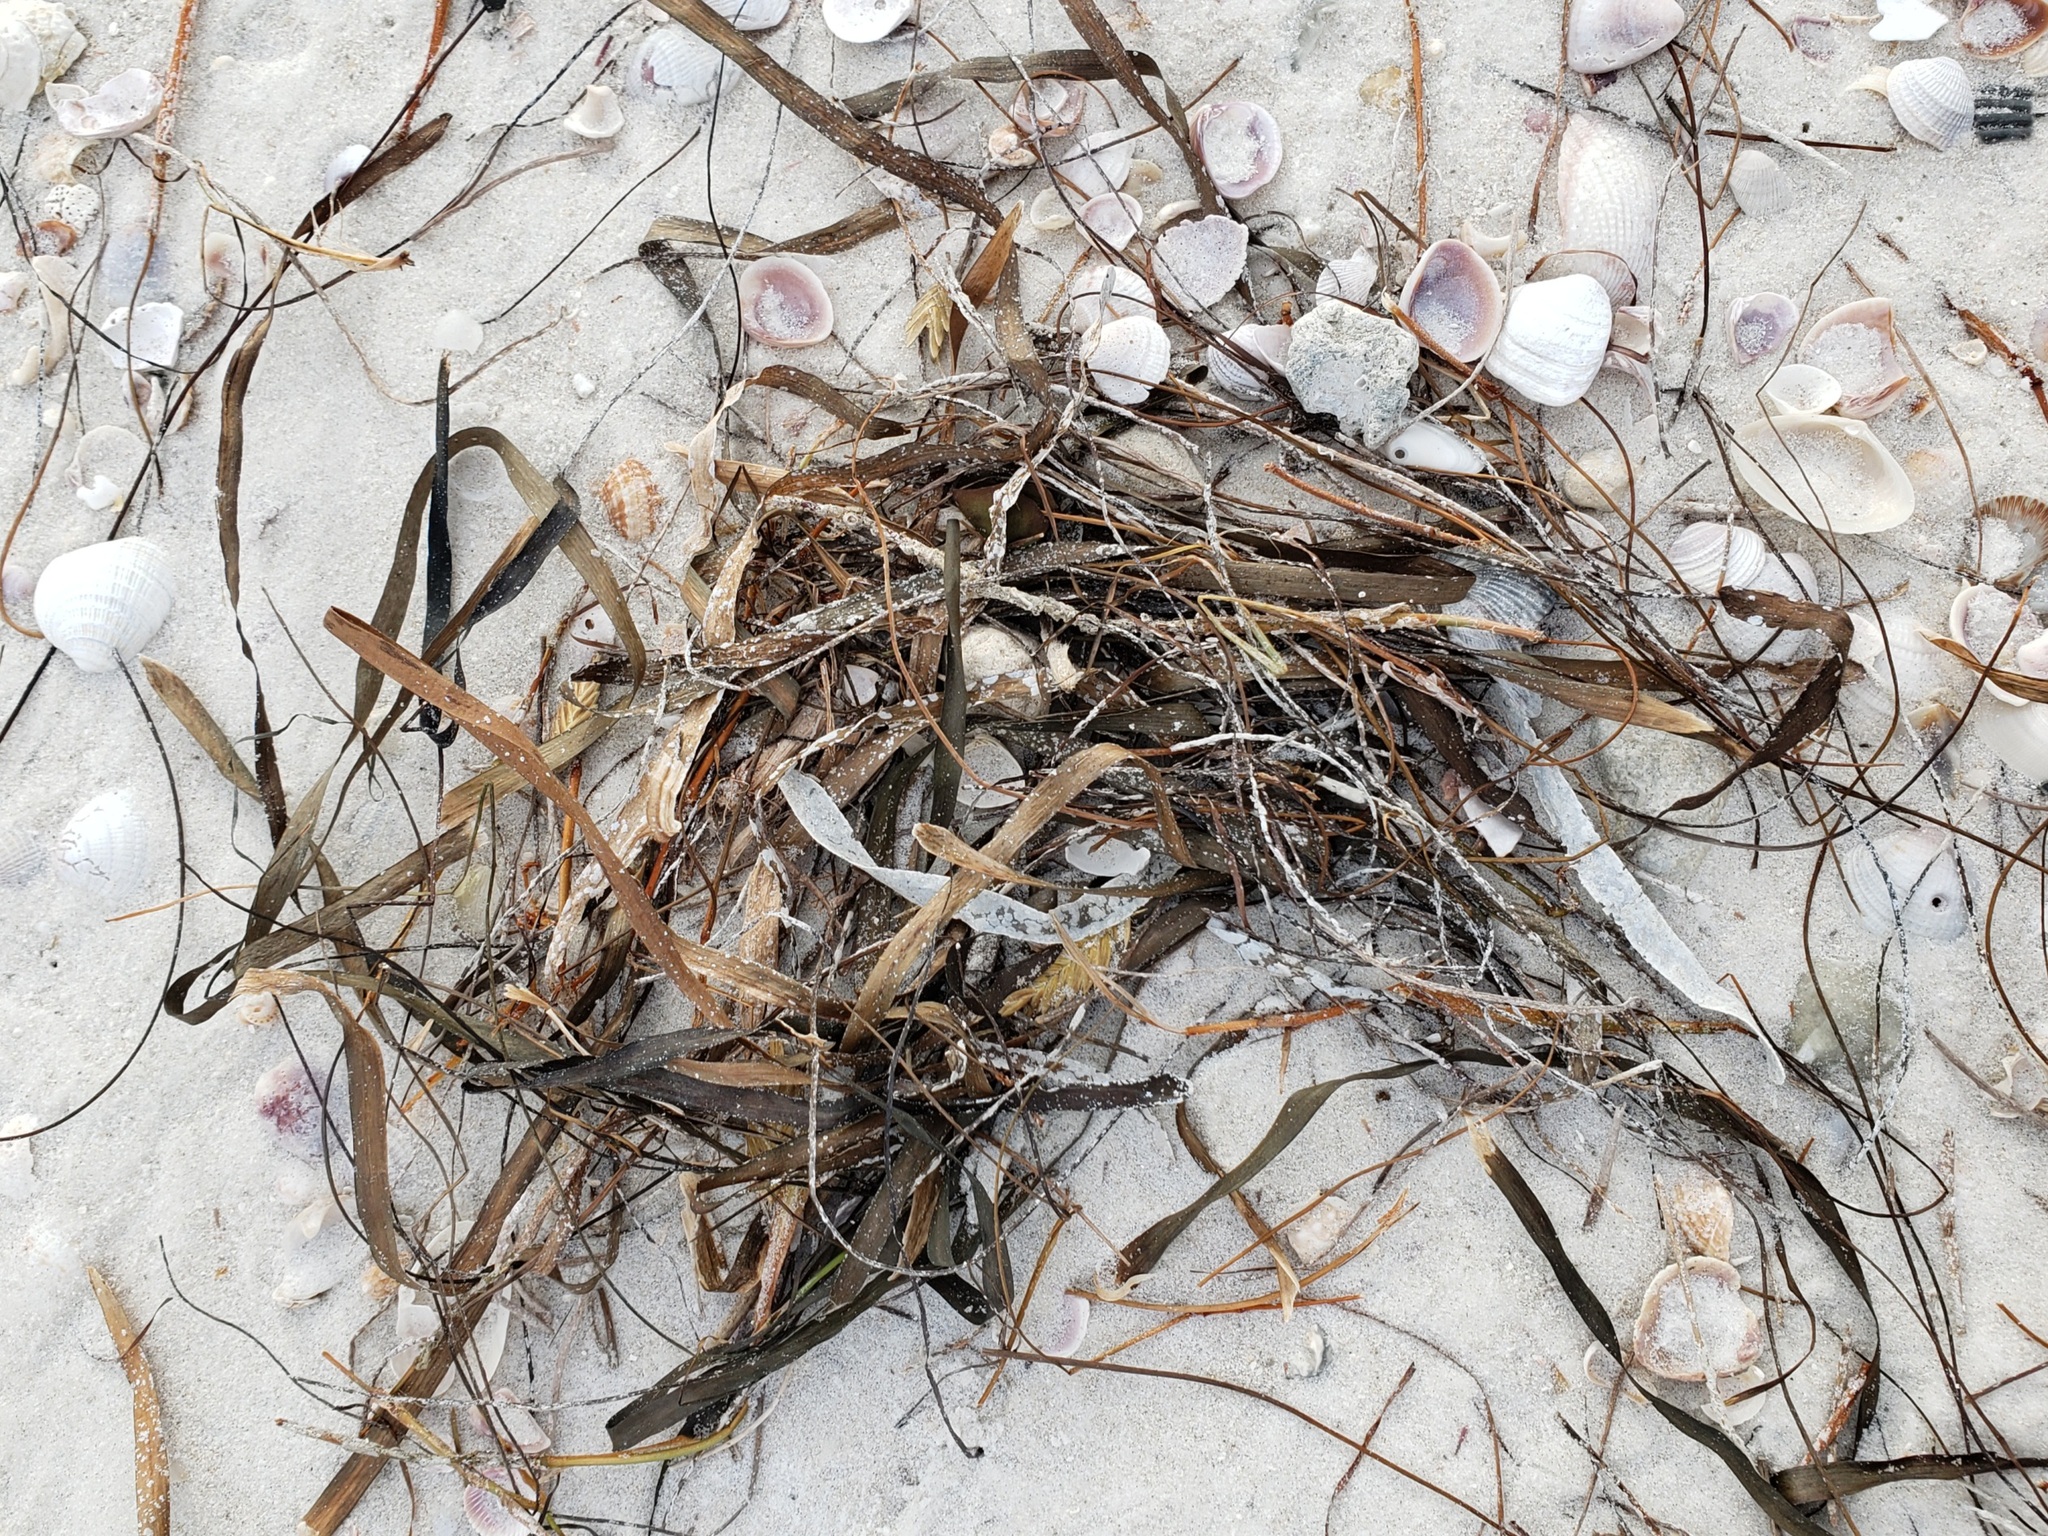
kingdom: Plantae
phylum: Tracheophyta
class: Liliopsida
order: Alismatales
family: Hydrocharitaceae
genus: Thalassia
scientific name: Thalassia testudinum
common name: Species code: tt
